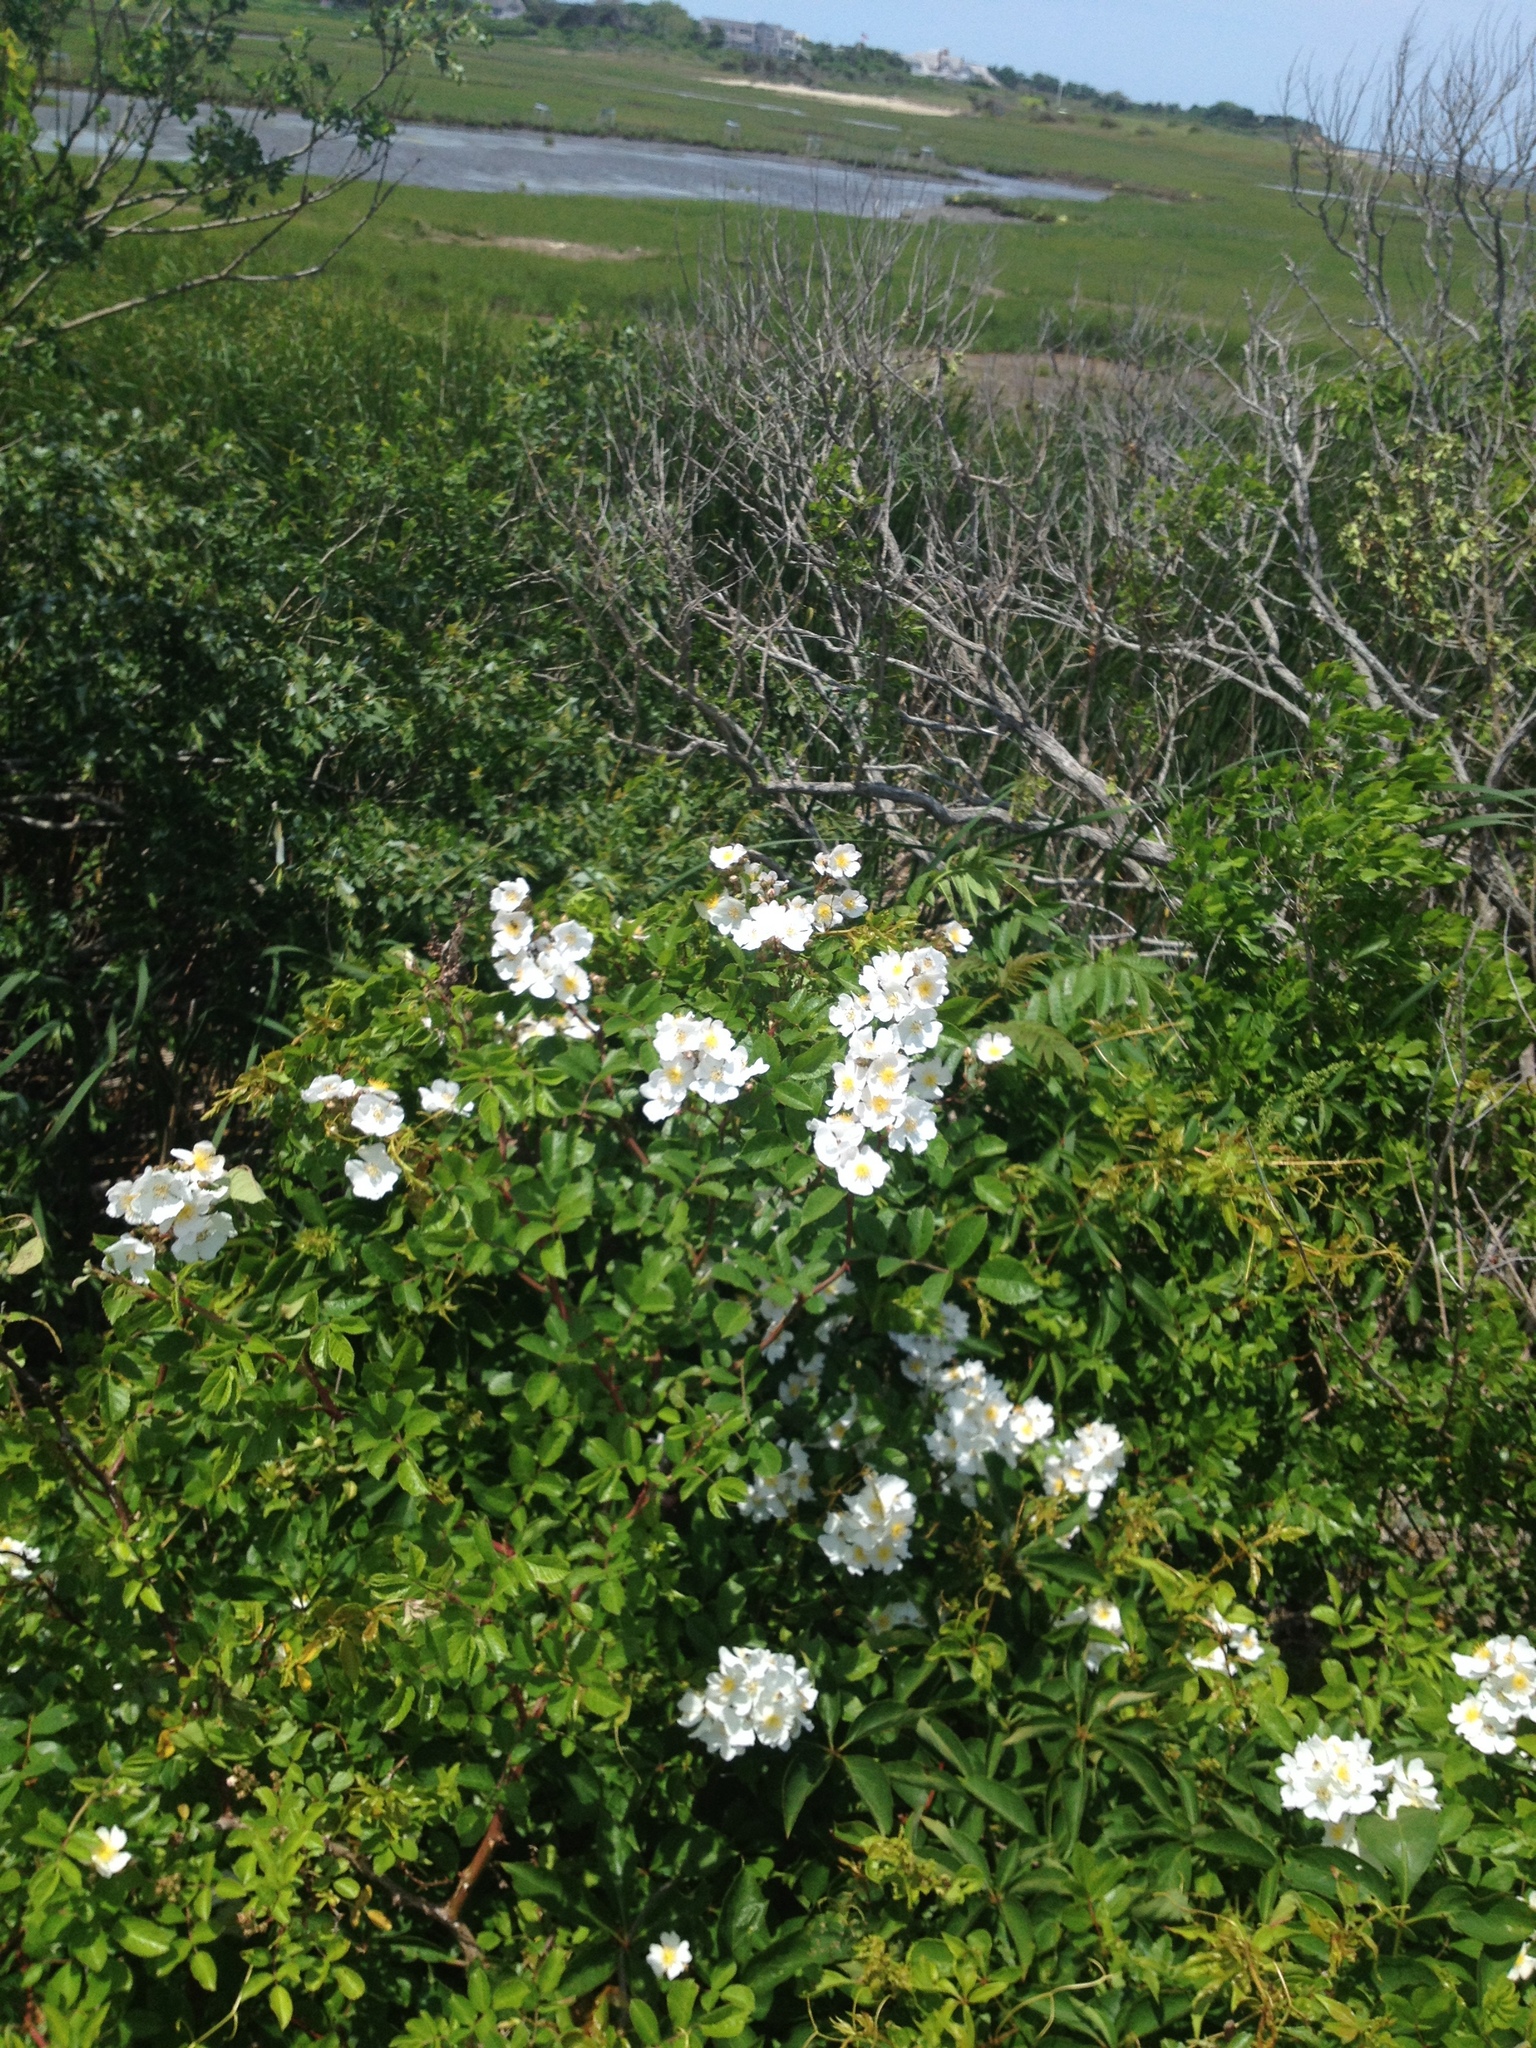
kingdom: Plantae
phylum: Tracheophyta
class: Magnoliopsida
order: Rosales
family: Rosaceae
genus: Rosa
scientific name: Rosa multiflora
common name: Multiflora rose
